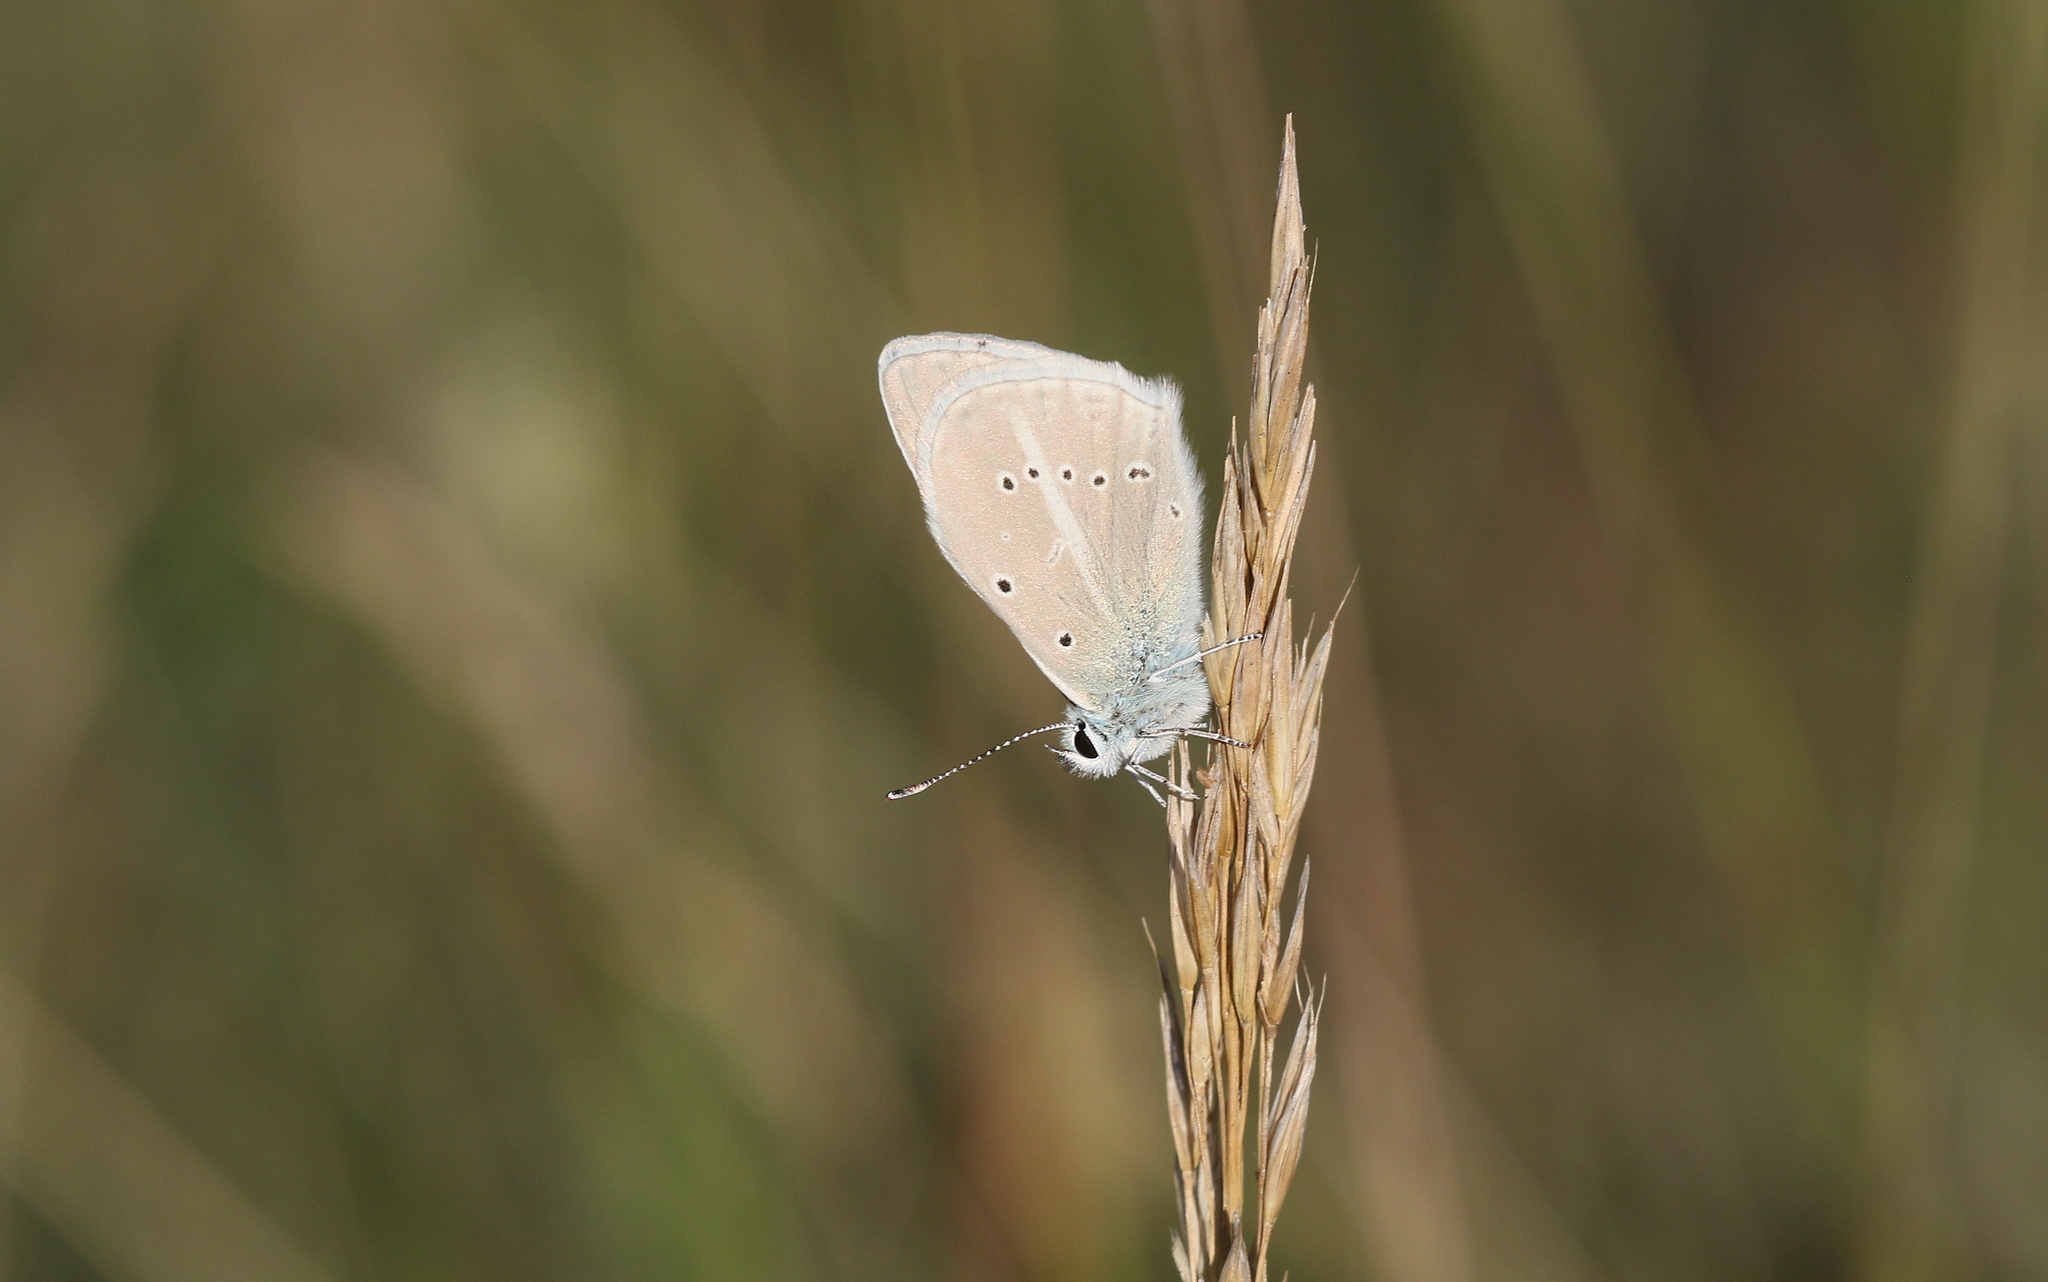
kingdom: Animalia
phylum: Arthropoda
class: Insecta
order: Lepidoptera
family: Lycaenidae
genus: Agrodiaetus
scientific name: Agrodiaetus dolus
